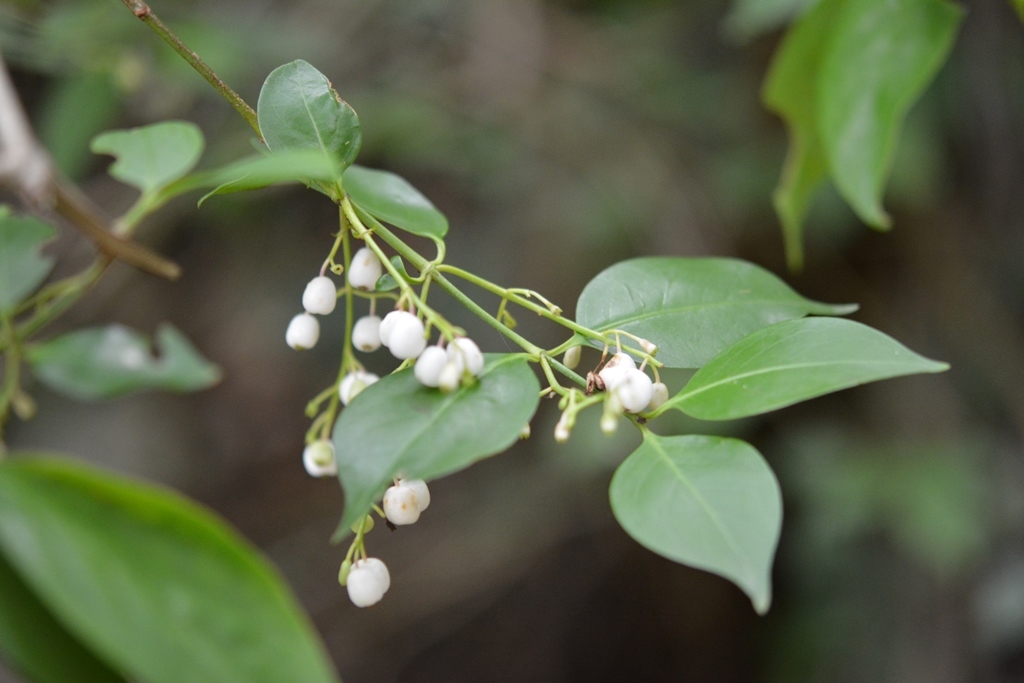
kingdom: Plantae
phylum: Tracheophyta
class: Magnoliopsida
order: Gentianales
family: Rubiaceae
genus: Chiococca
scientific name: Chiococca alba
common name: Snowberry
